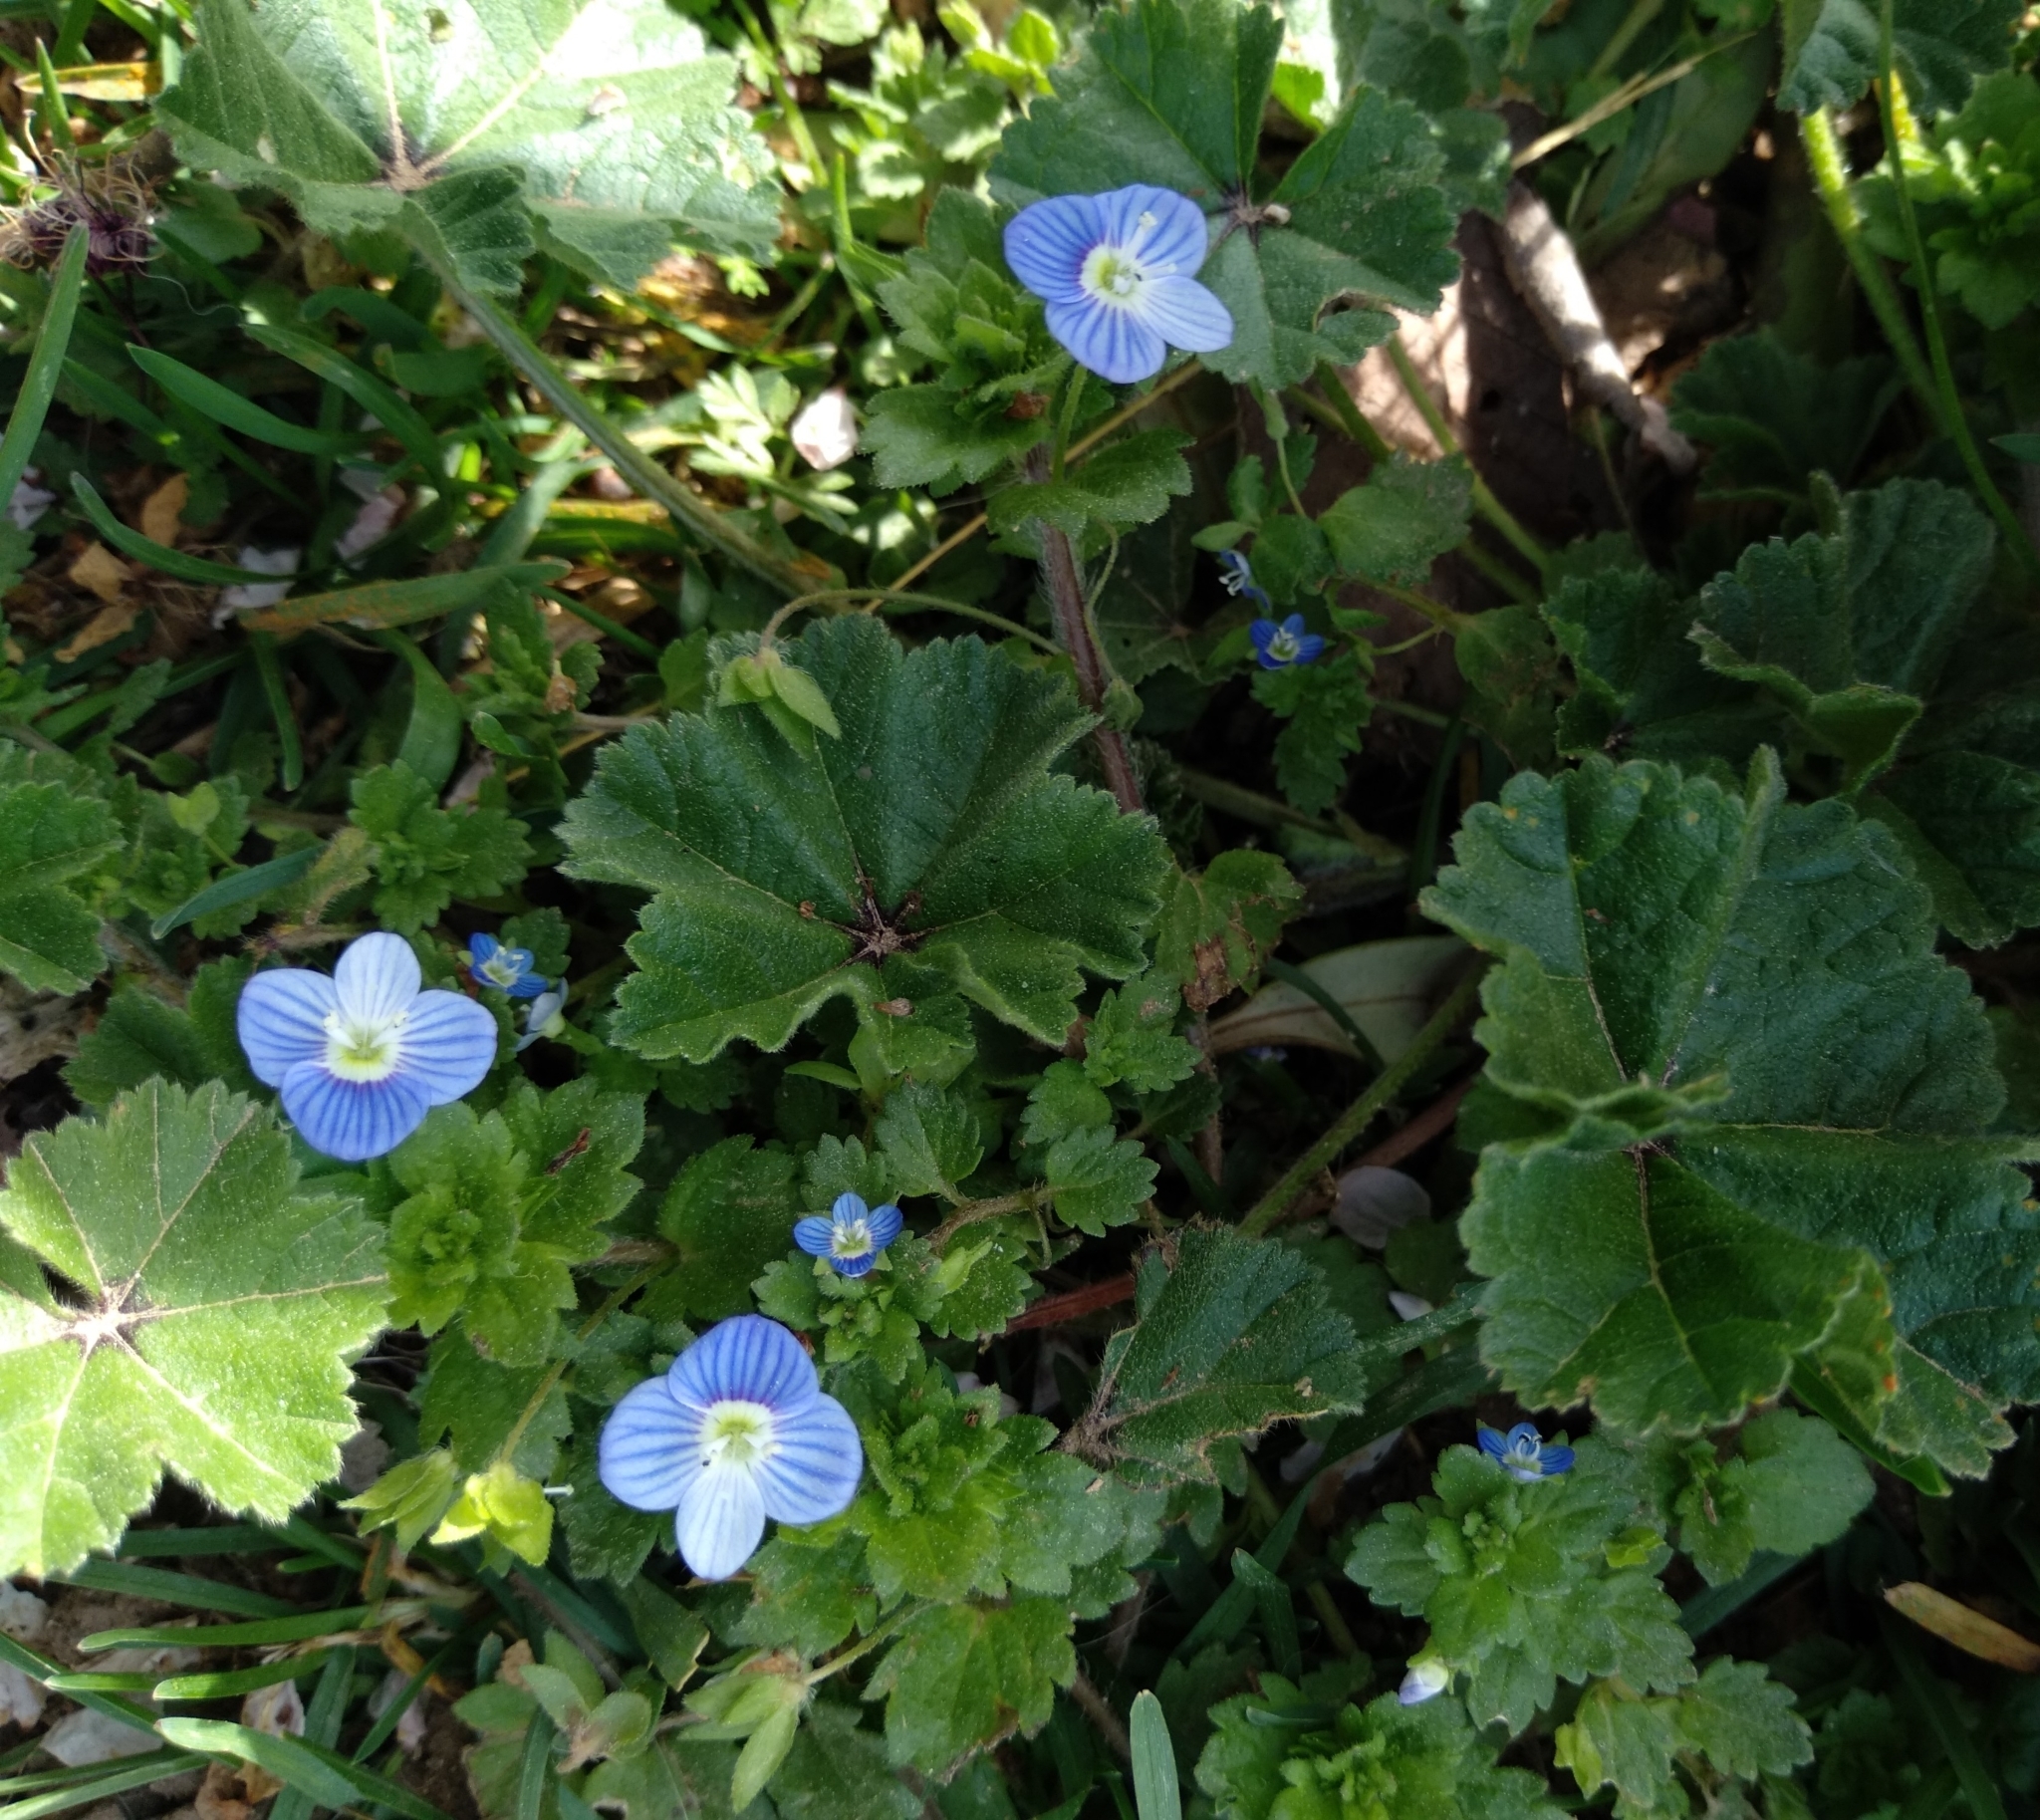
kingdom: Plantae
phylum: Tracheophyta
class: Magnoliopsida
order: Lamiales
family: Plantaginaceae
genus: Veronica
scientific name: Veronica persica
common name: Common field-speedwell
